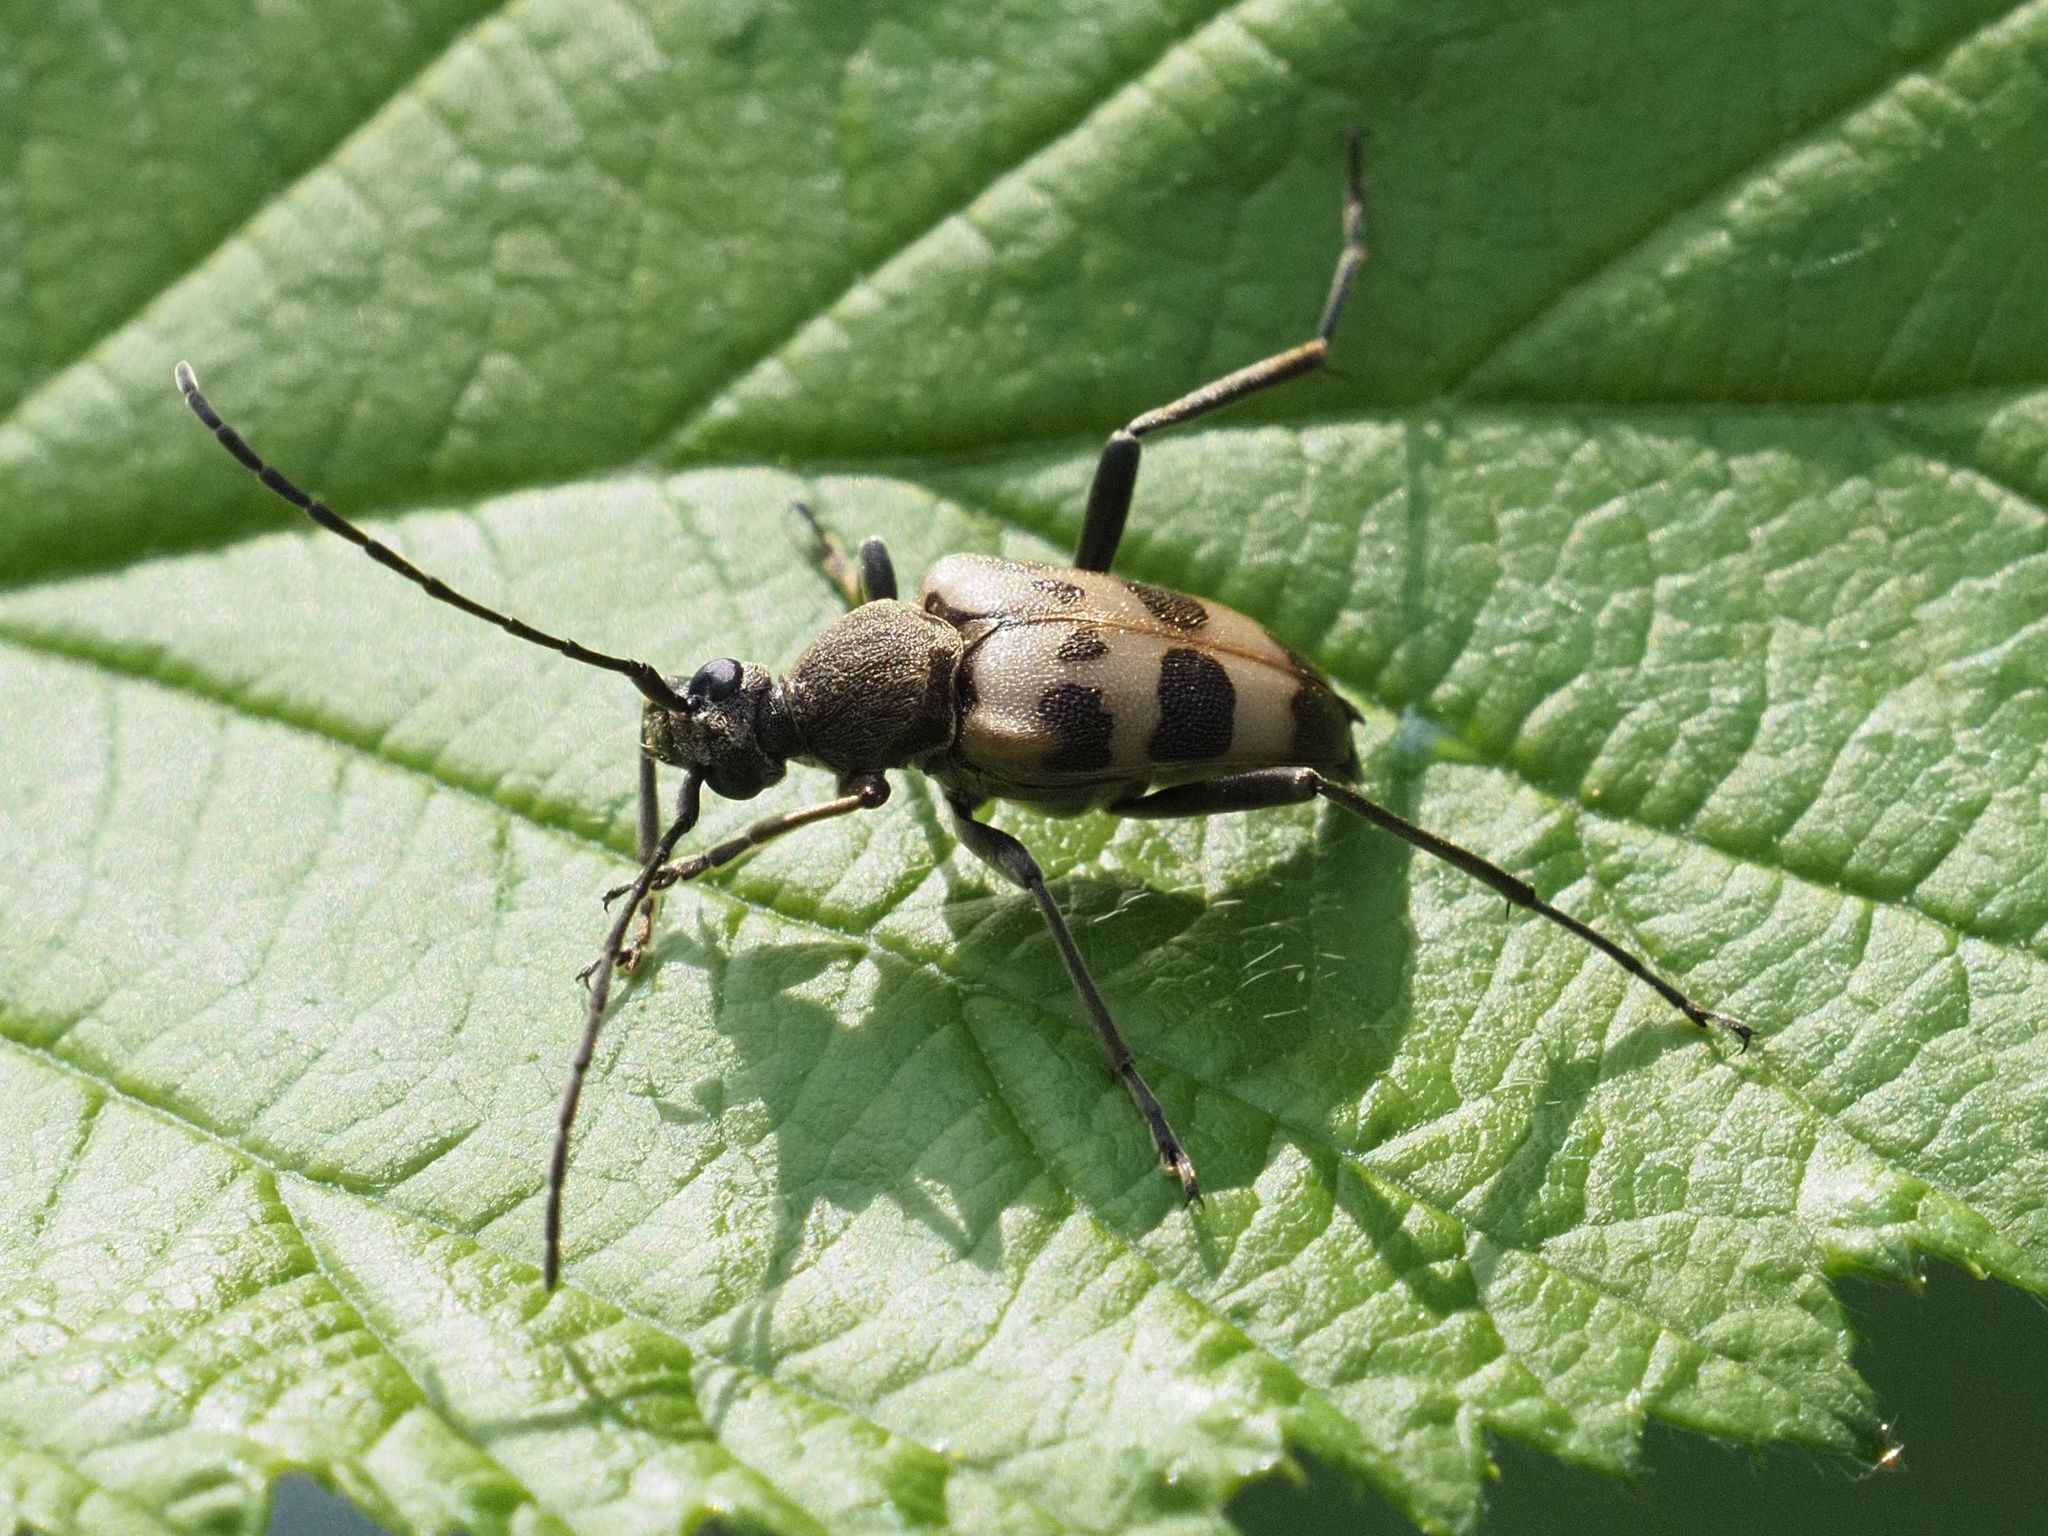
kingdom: Animalia
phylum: Arthropoda
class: Insecta
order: Coleoptera
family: Cerambycidae
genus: Pachytodes
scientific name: Pachytodes cerambyciformis
